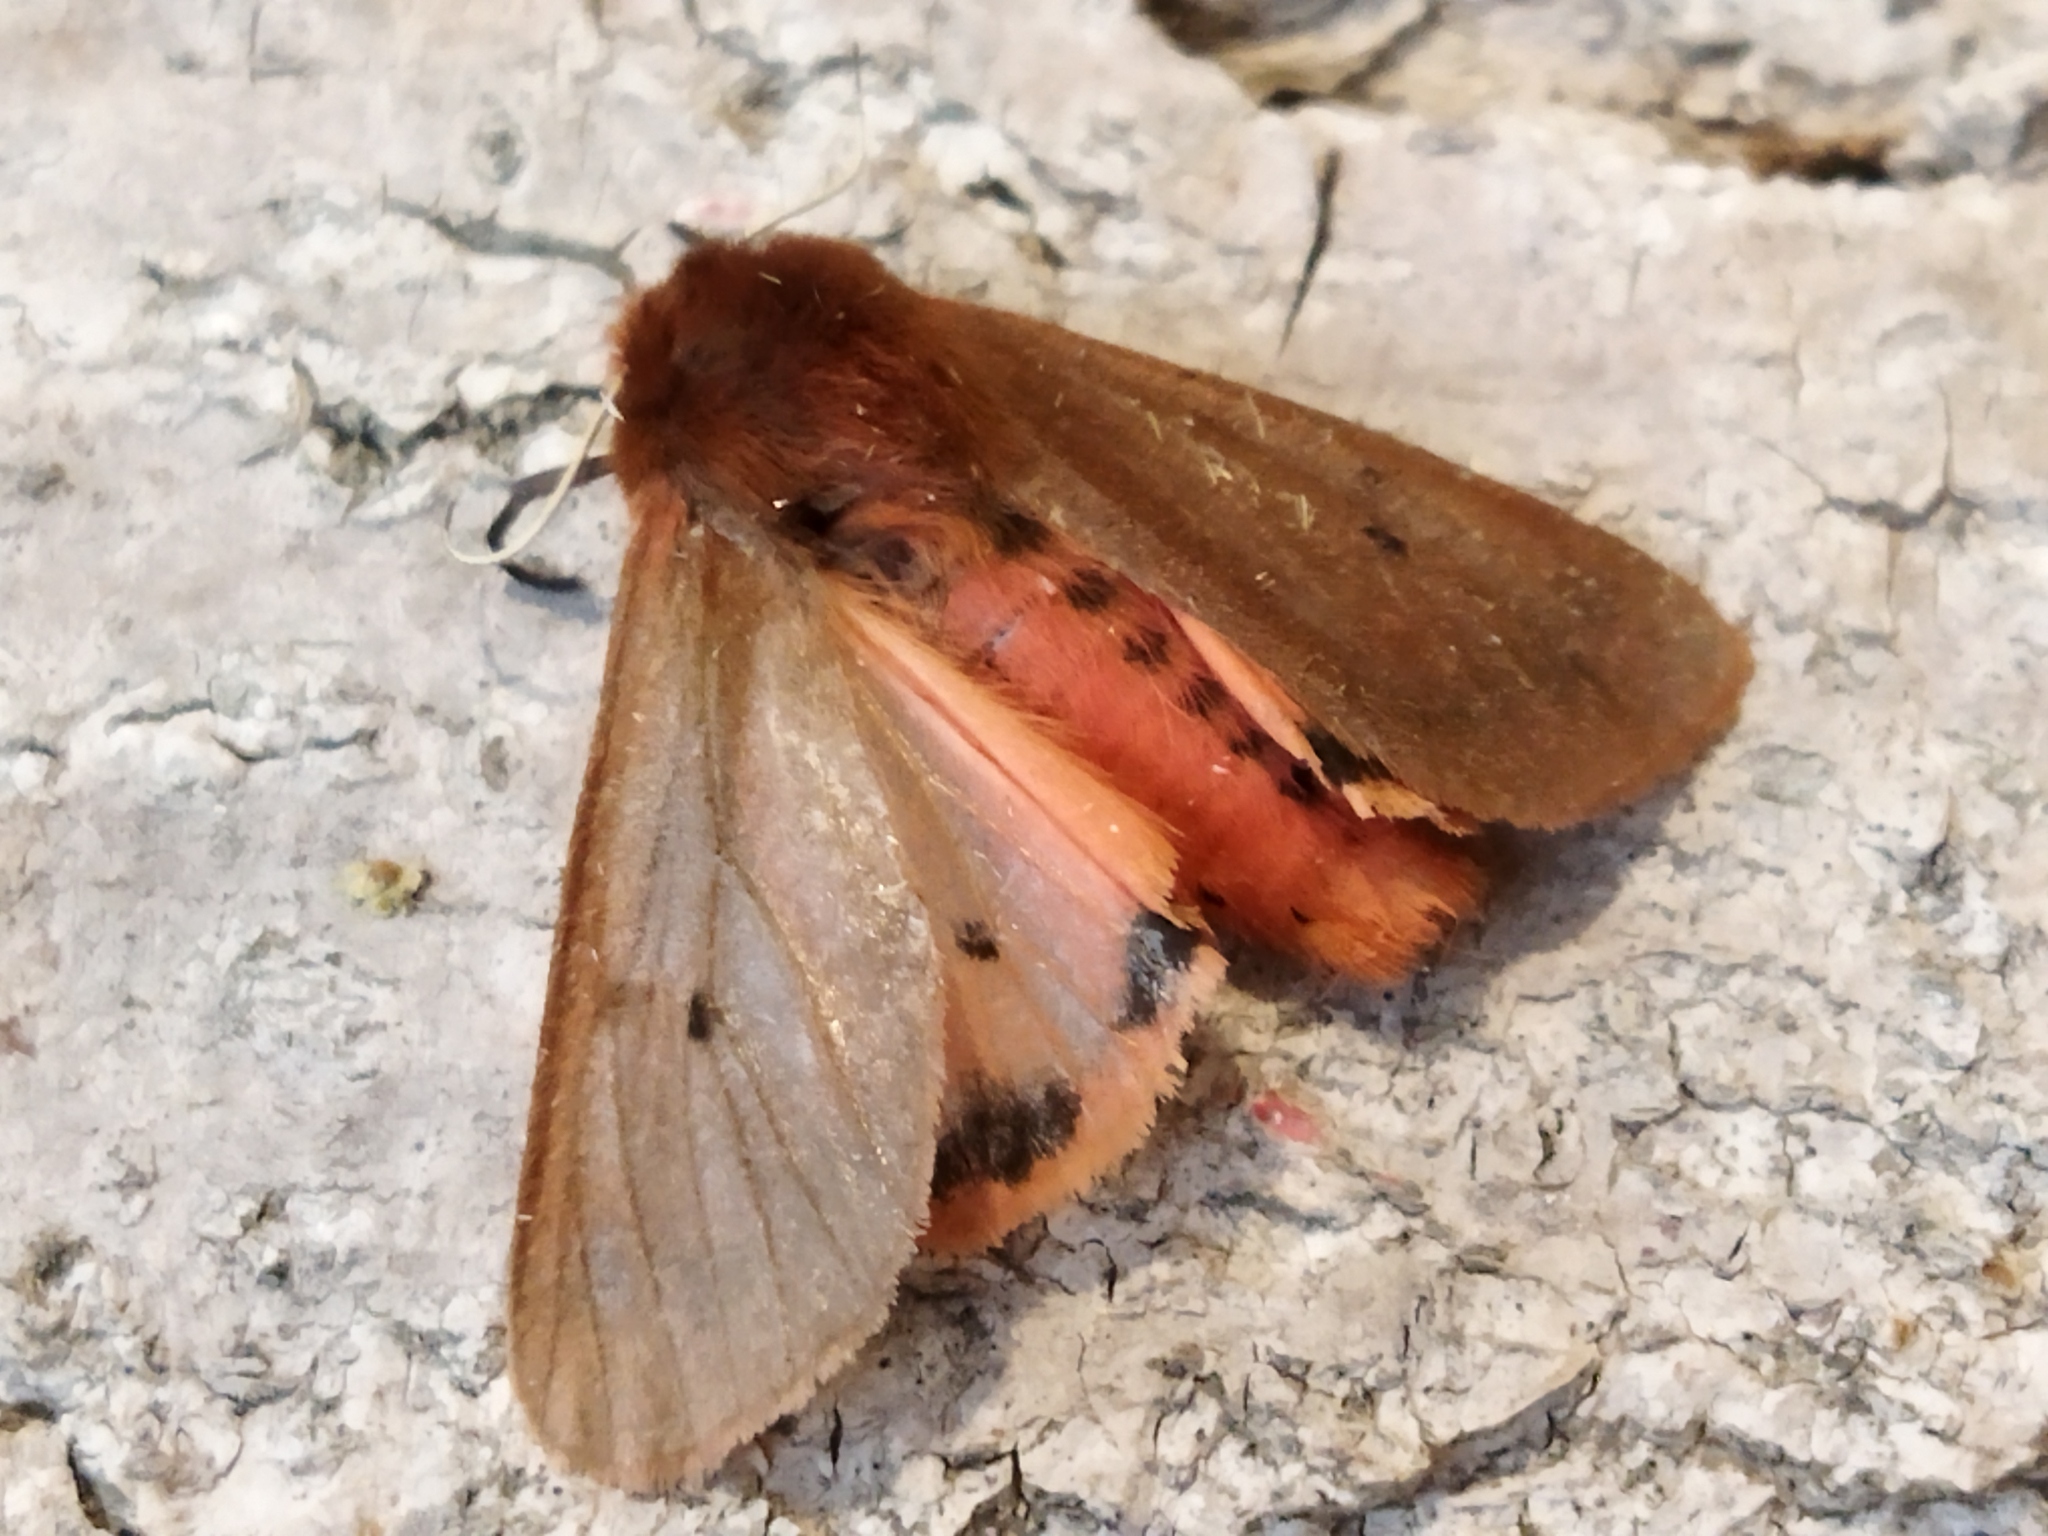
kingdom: Animalia
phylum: Arthropoda
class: Insecta
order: Lepidoptera
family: Erebidae
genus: Phragmatobia
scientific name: Phragmatobia fuliginosa
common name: Ruby tiger
